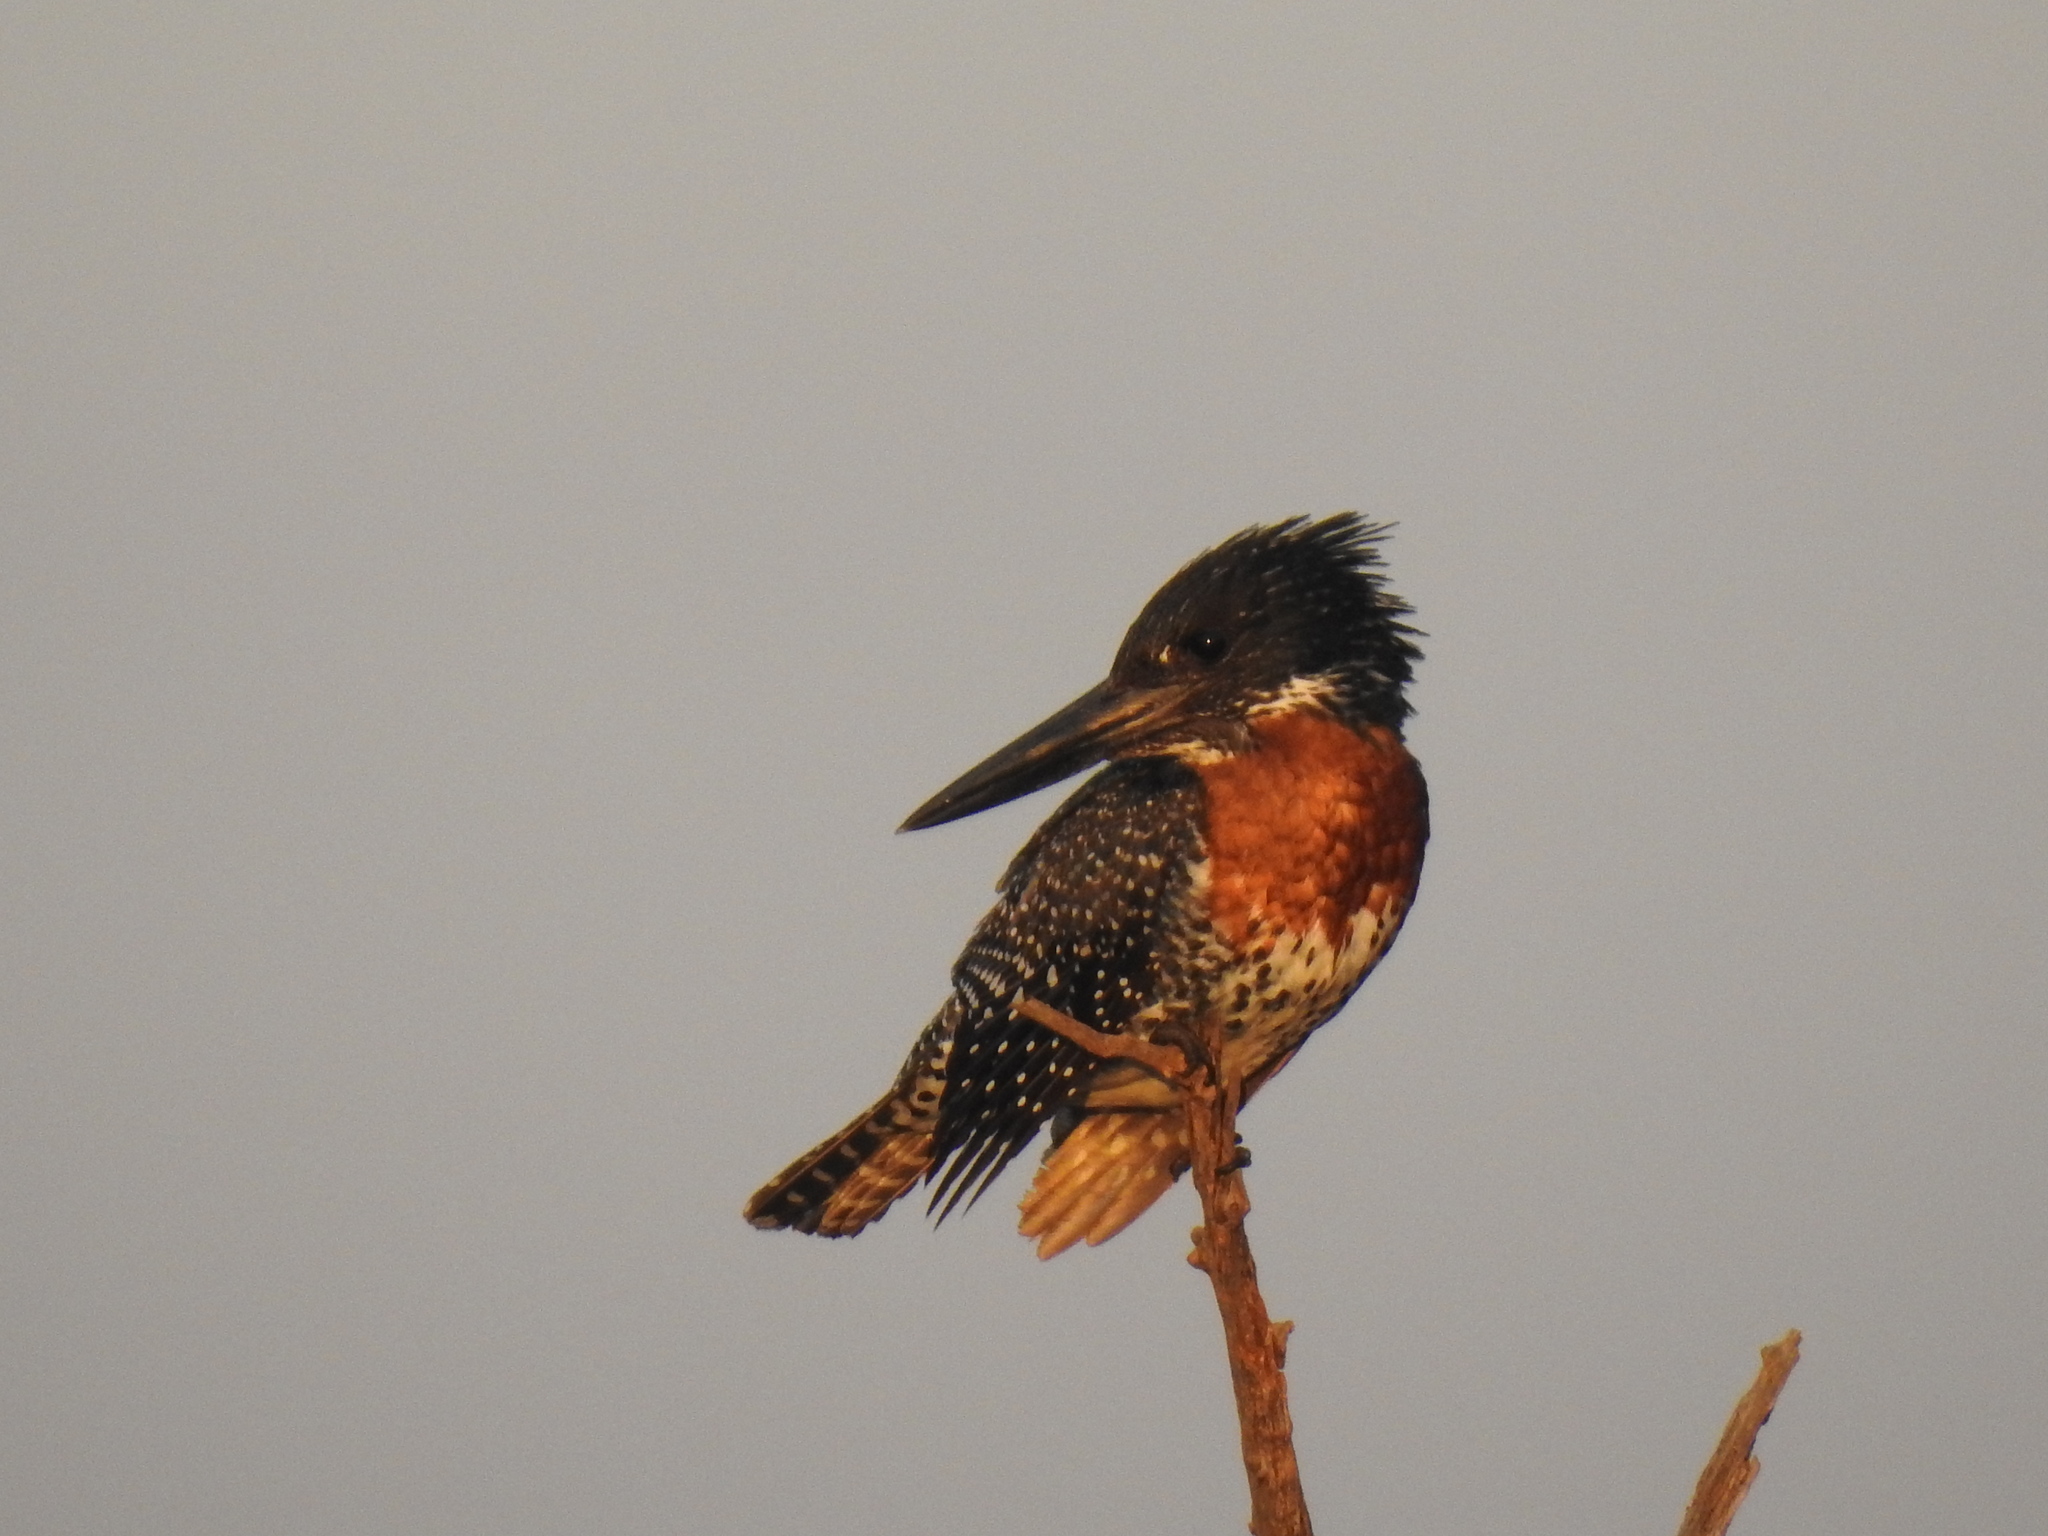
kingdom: Animalia
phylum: Chordata
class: Aves
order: Coraciiformes
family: Alcedinidae
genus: Megaceryle
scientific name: Megaceryle maxima
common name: Giant kingfisher
